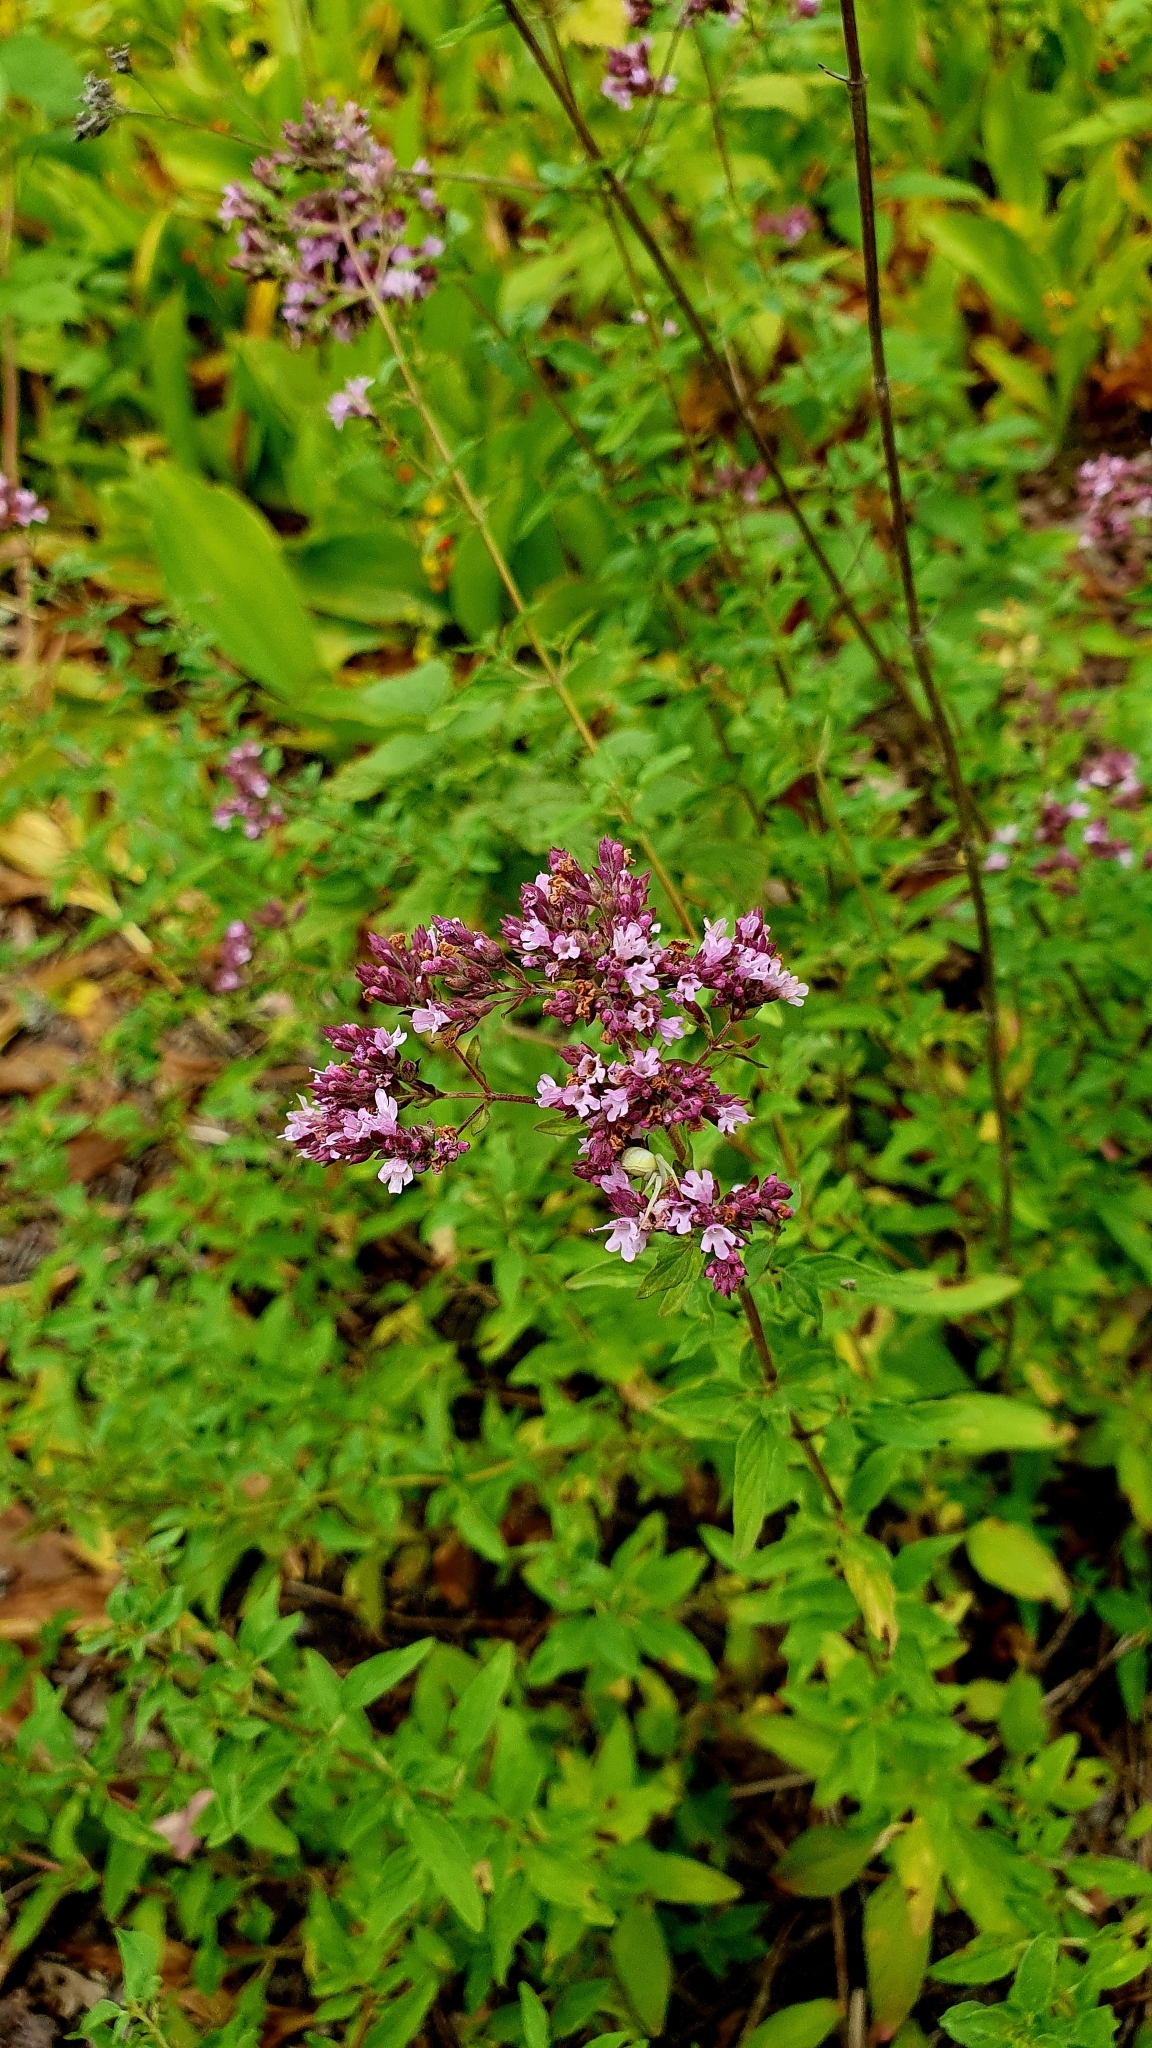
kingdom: Plantae
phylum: Tracheophyta
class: Magnoliopsida
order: Lamiales
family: Lamiaceae
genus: Origanum
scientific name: Origanum vulgare
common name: Wild marjoram
